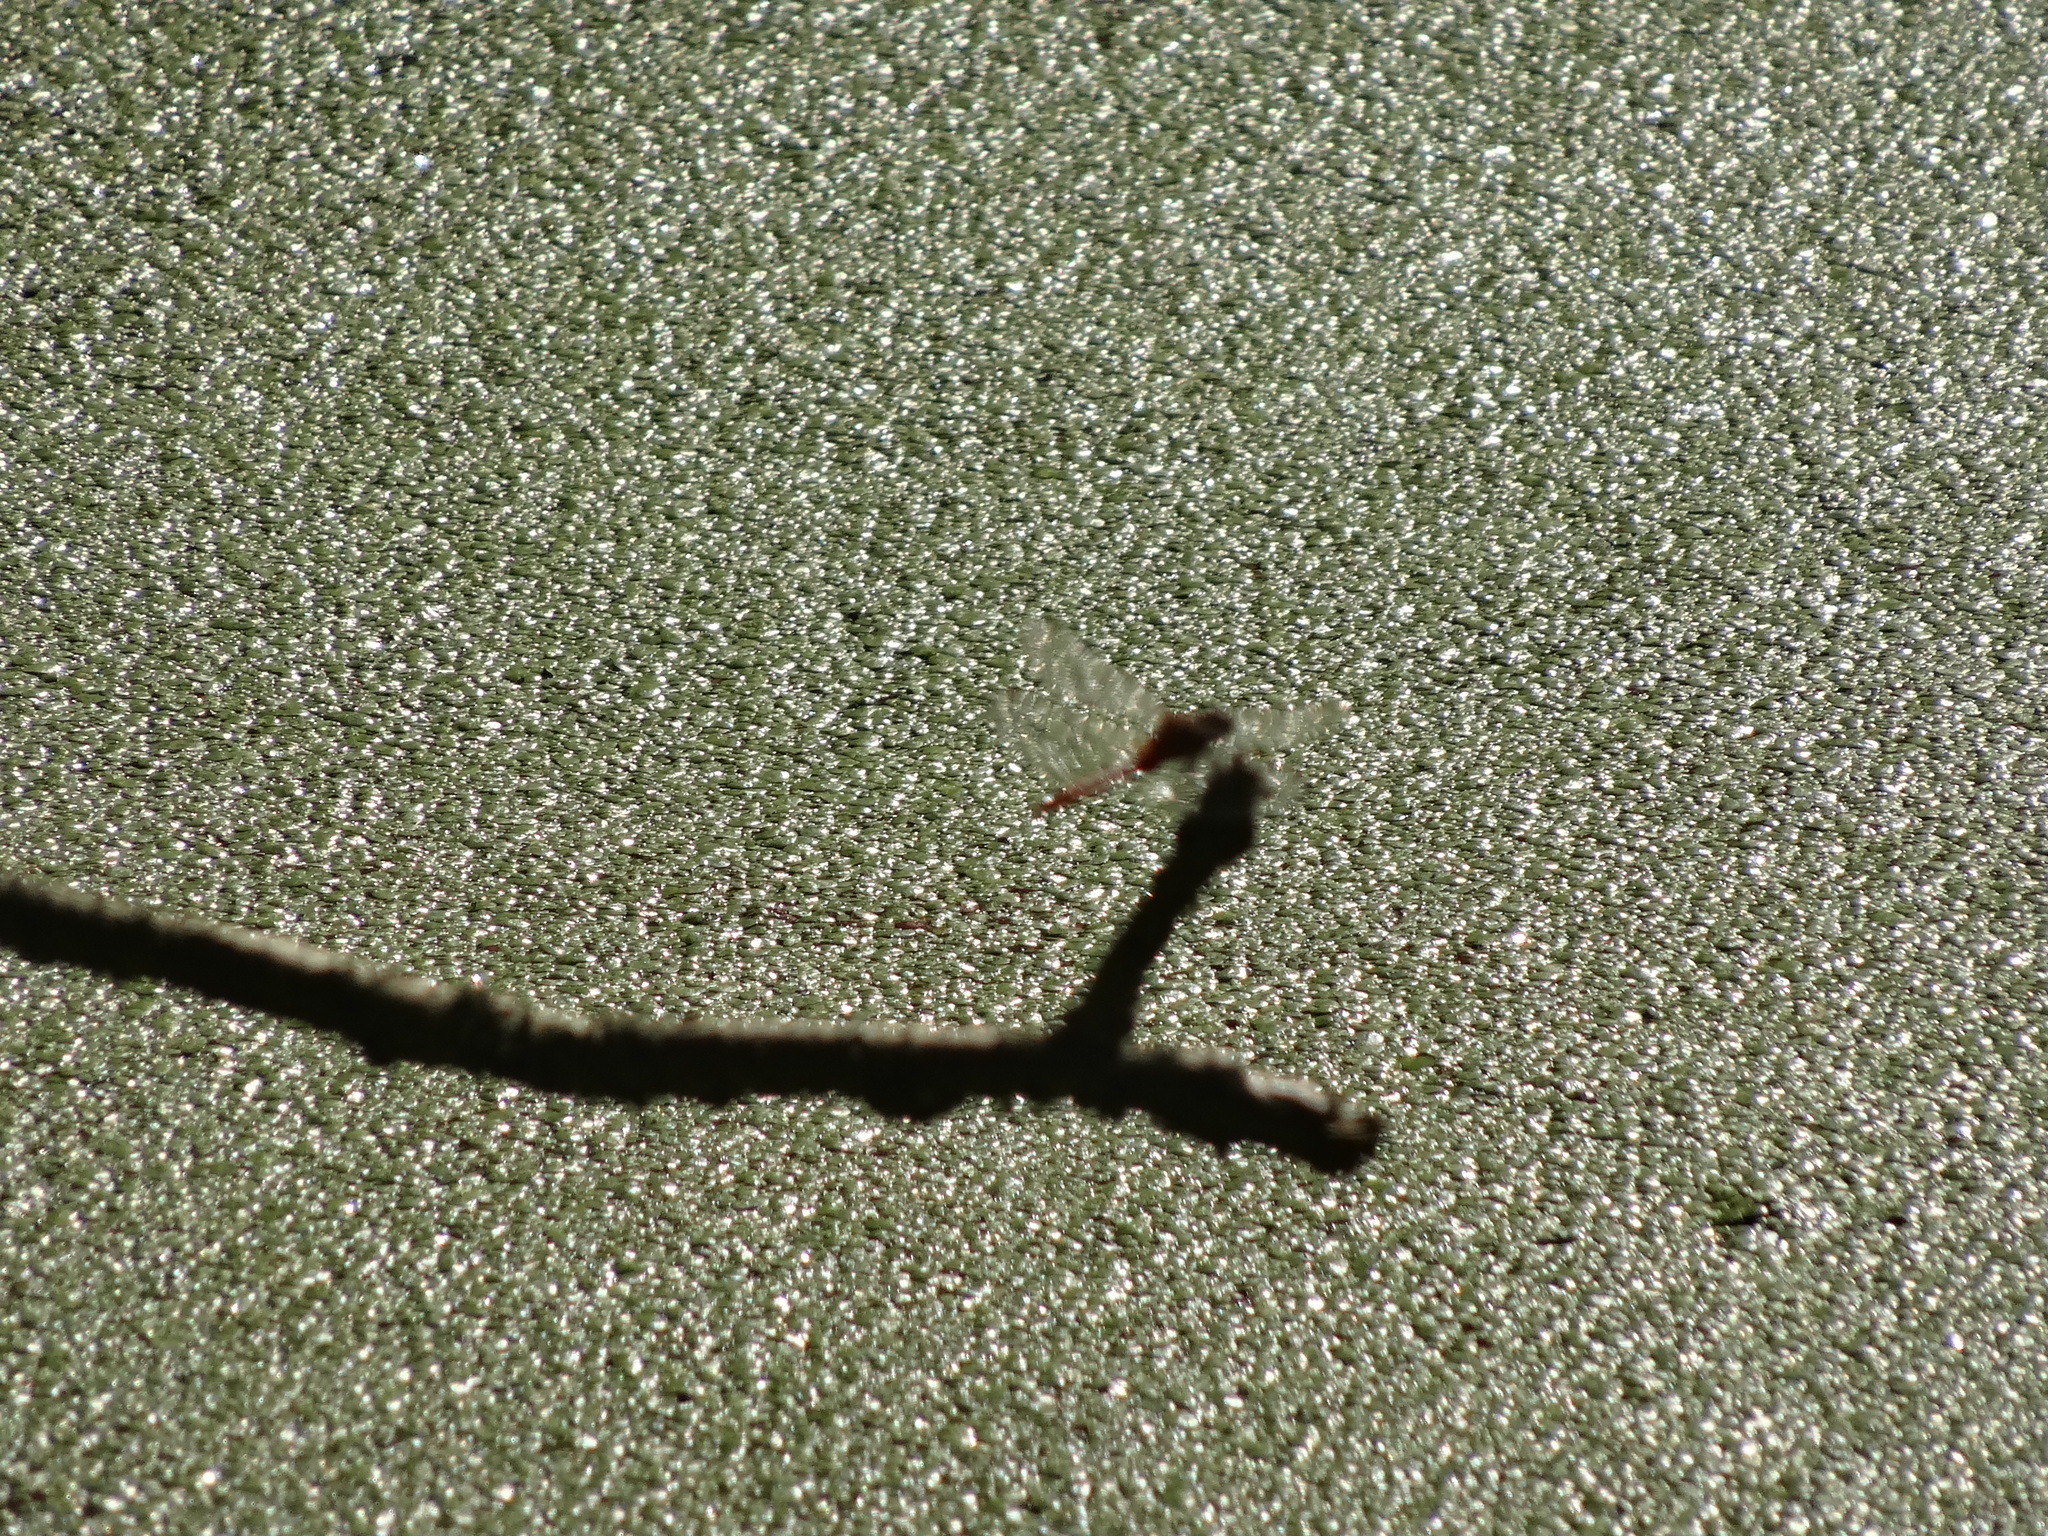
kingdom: Animalia
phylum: Arthropoda
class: Insecta
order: Odonata
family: Libellulidae
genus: Sympetrum
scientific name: Sympetrum sanguineum
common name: Ruddy darter
